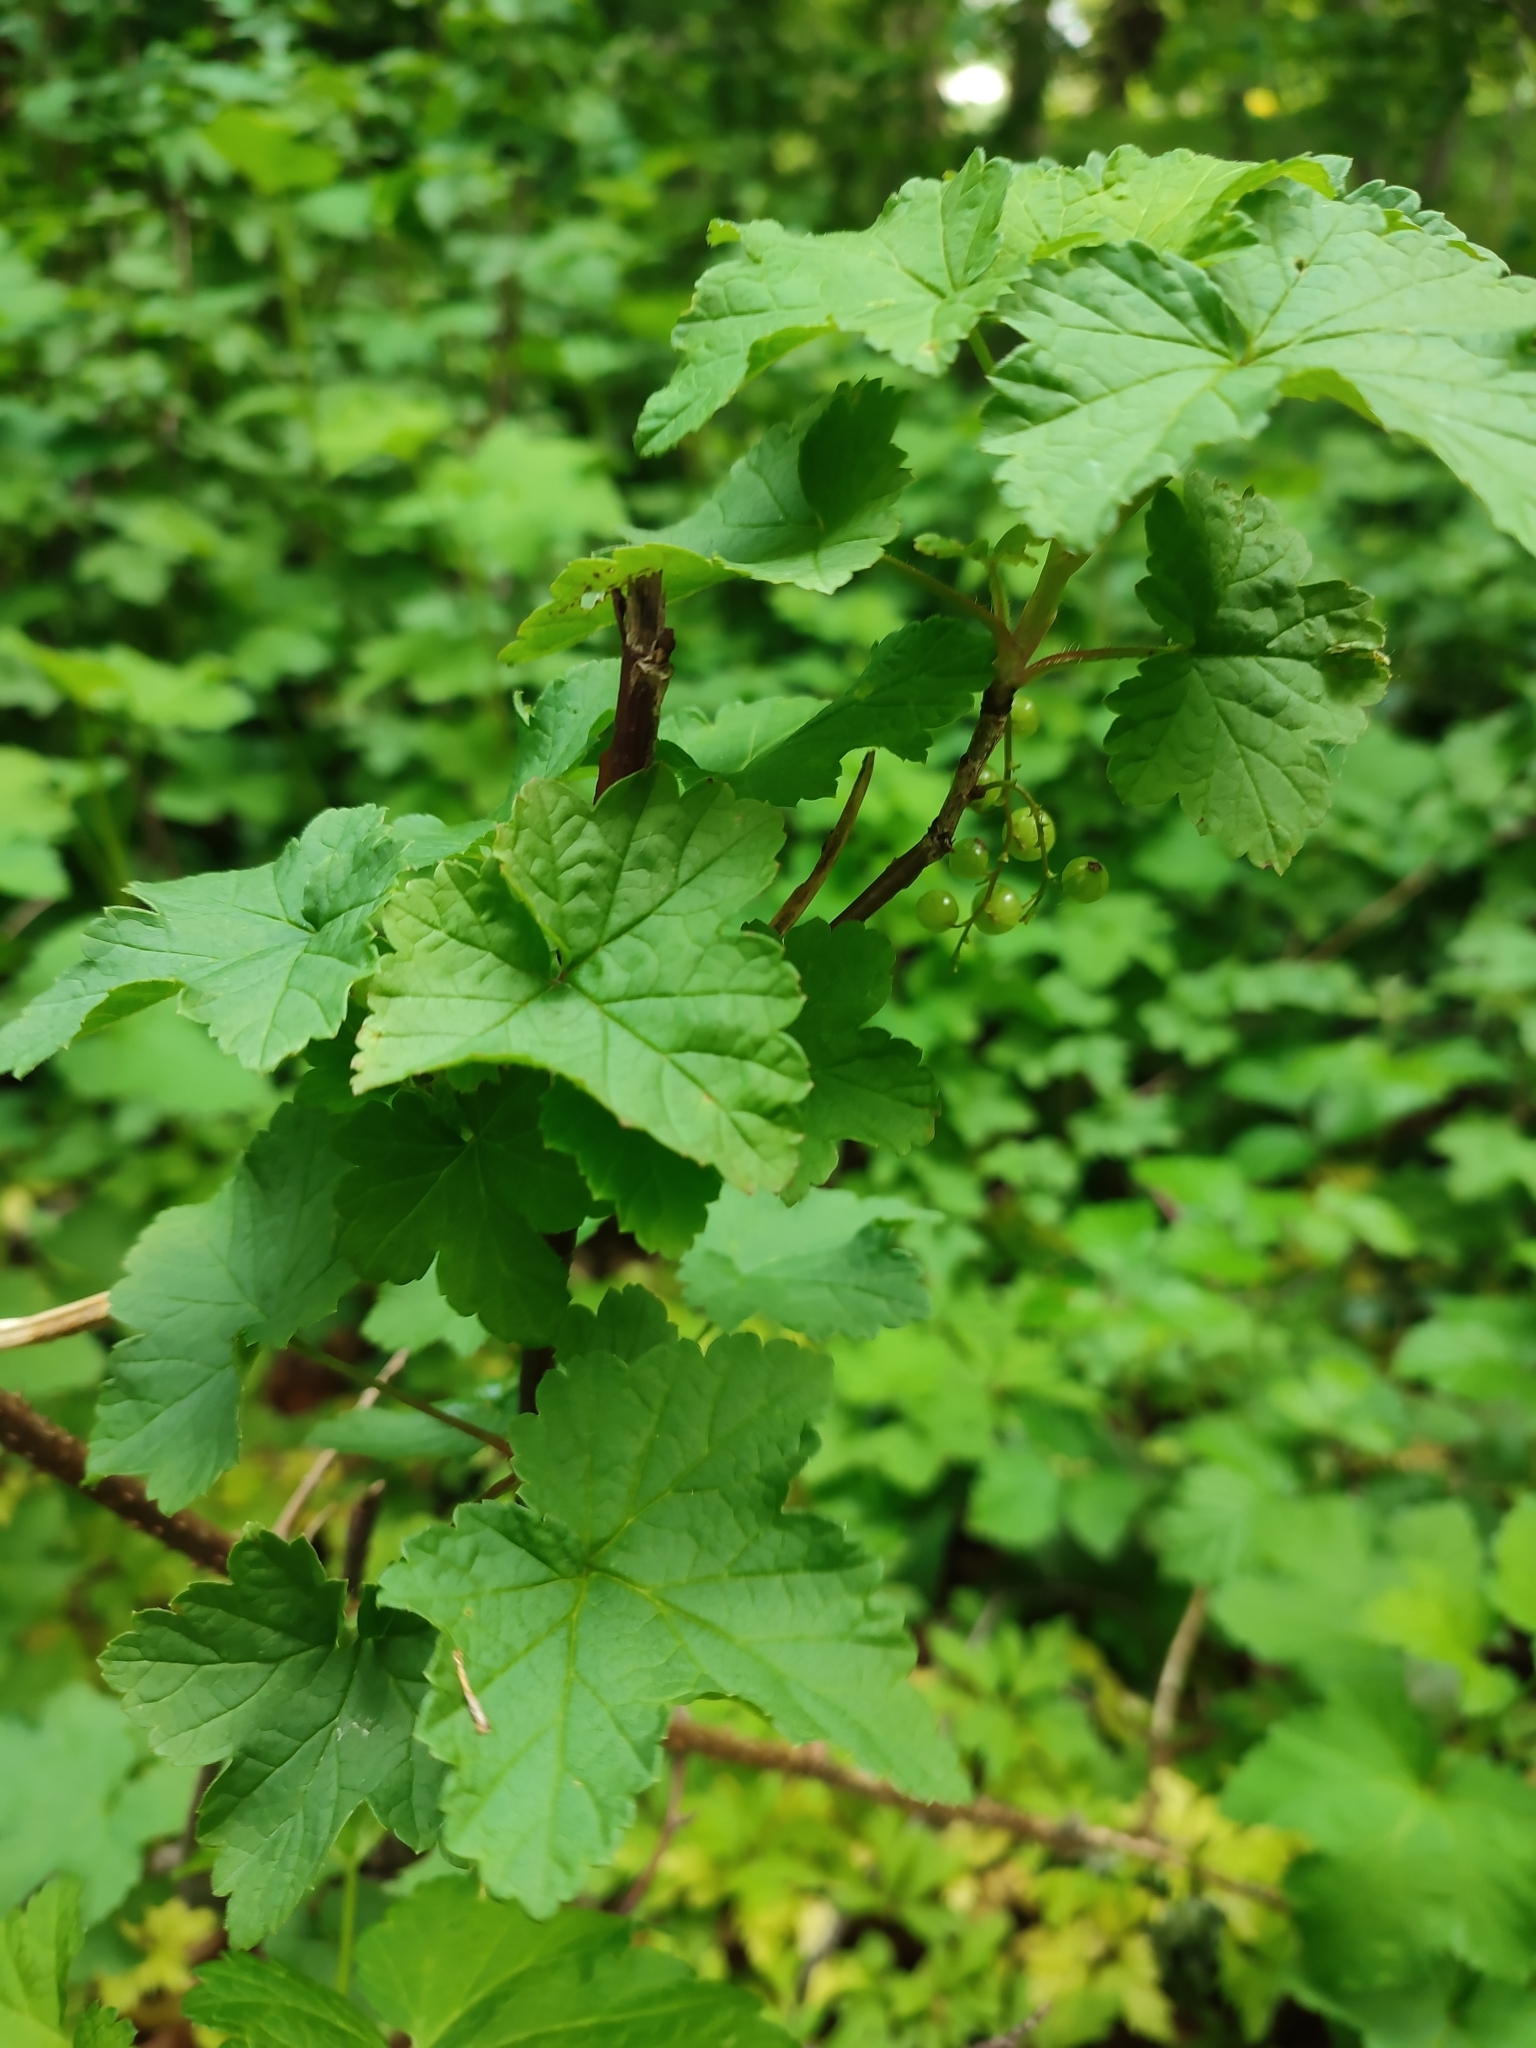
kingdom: Plantae
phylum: Tracheophyta
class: Magnoliopsida
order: Saxifragales
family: Grossulariaceae
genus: Ribes
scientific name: Ribes rubrum
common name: Red currant
